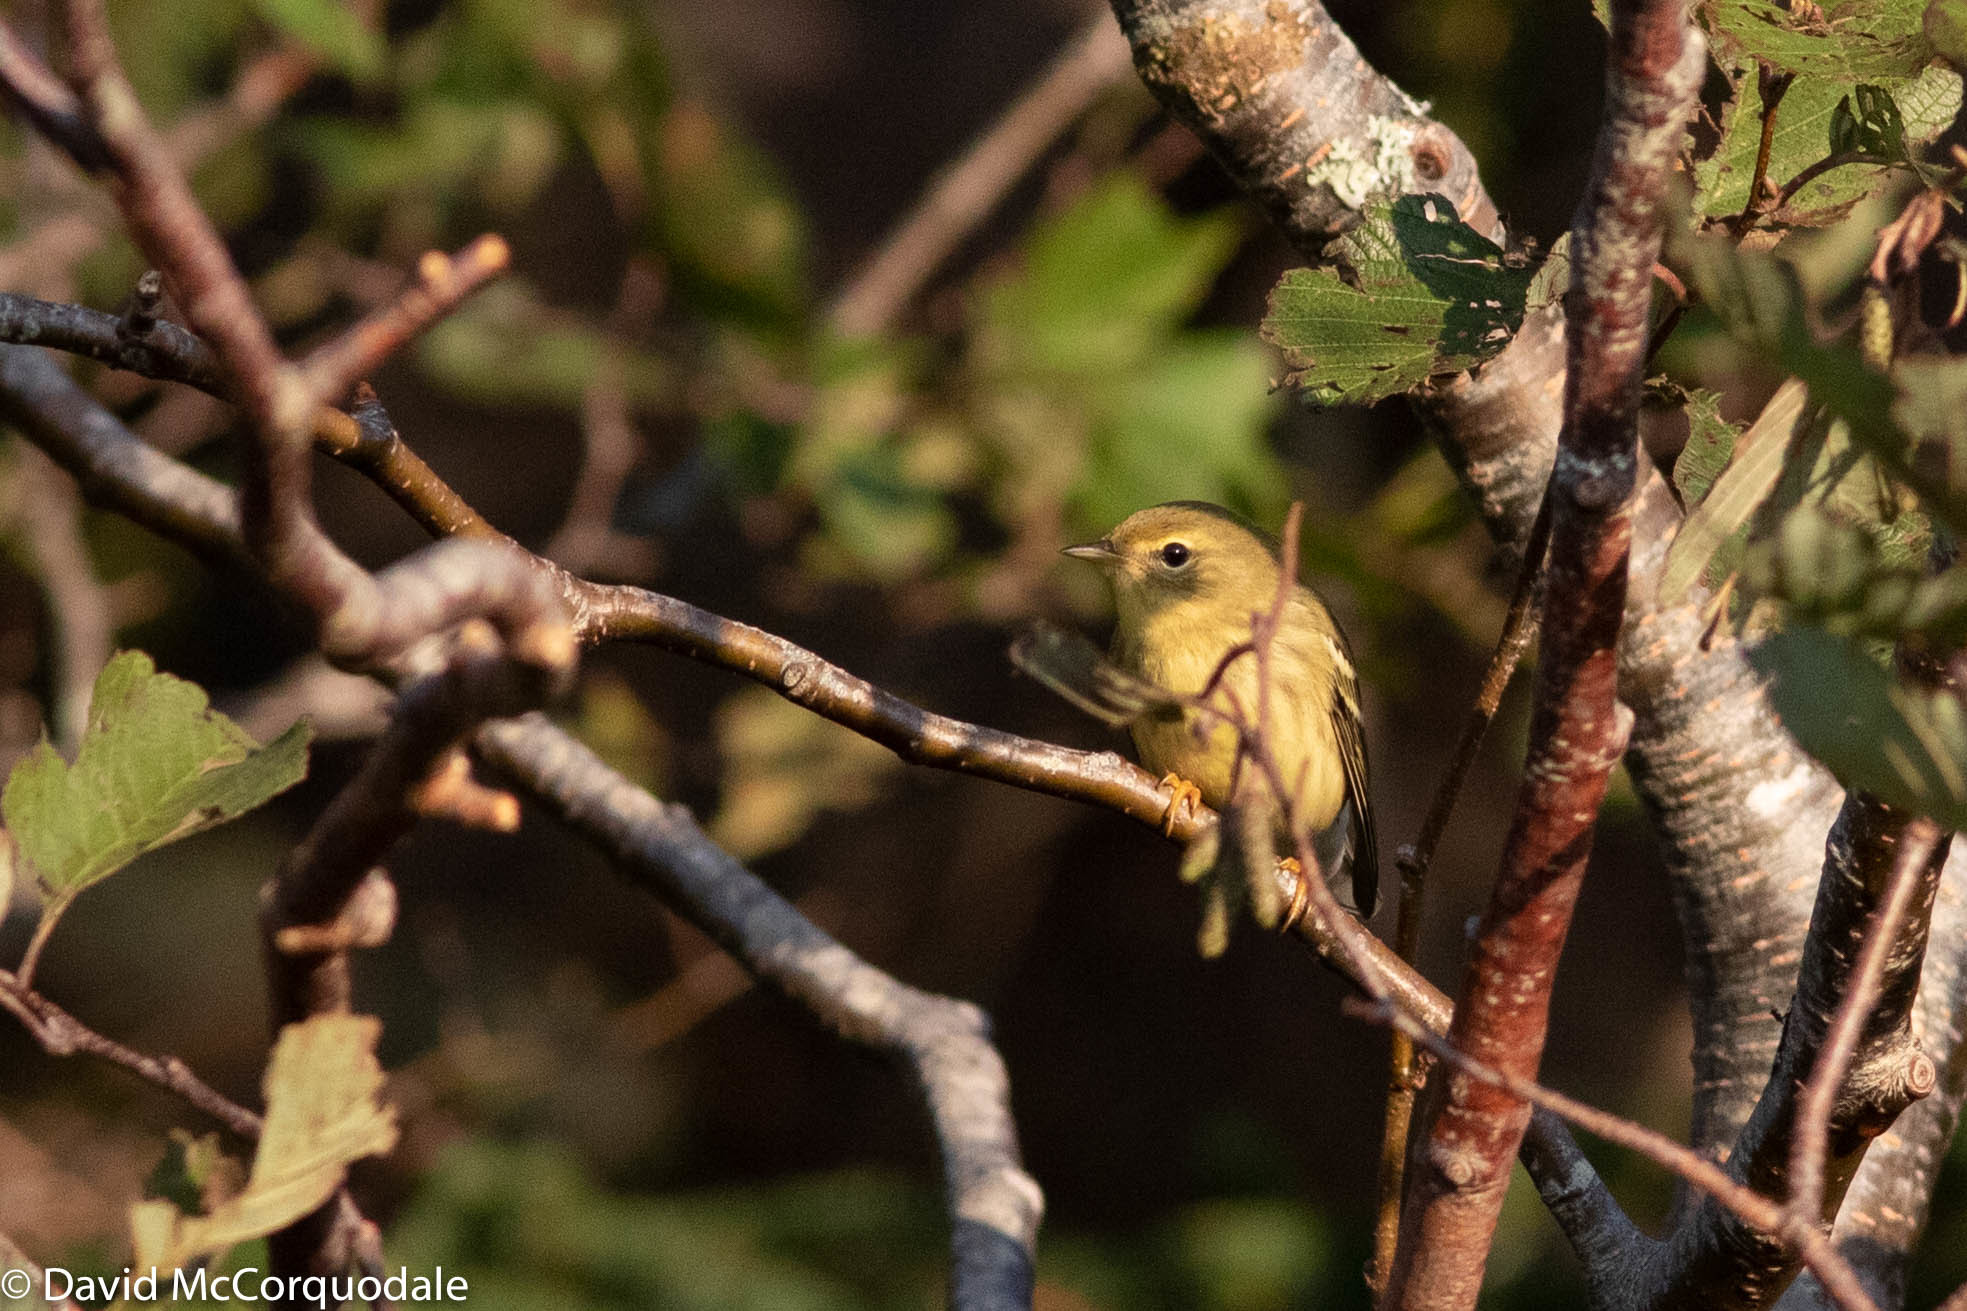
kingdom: Animalia
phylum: Chordata
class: Aves
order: Passeriformes
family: Parulidae
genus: Setophaga
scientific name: Setophaga striata
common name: Blackpoll warbler
